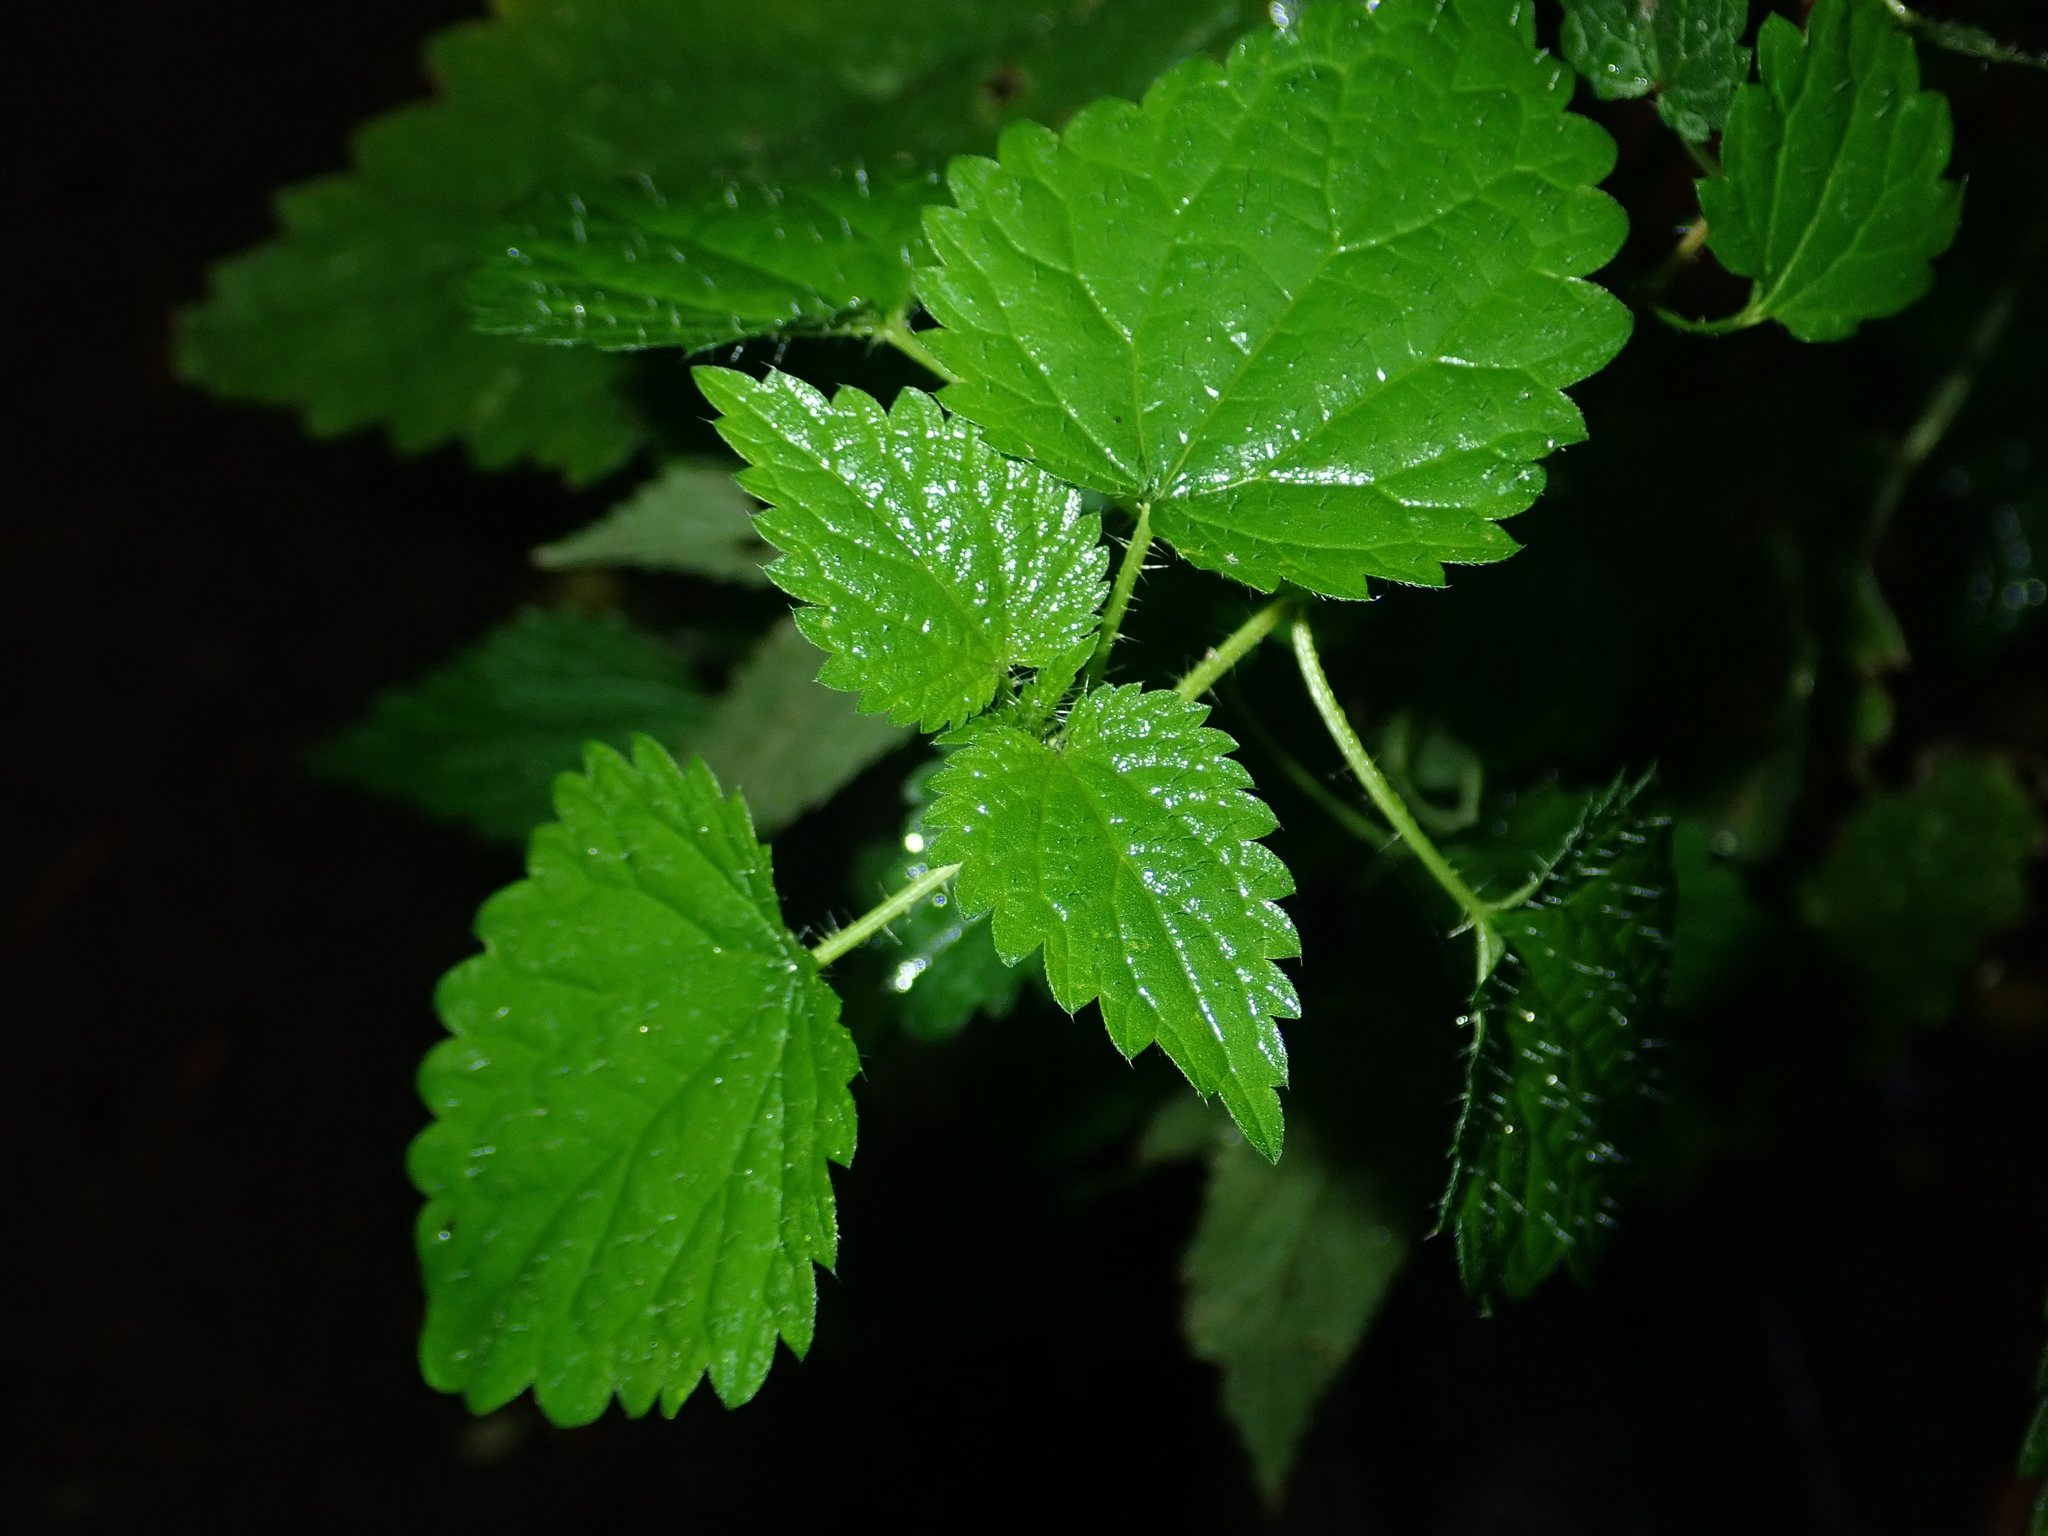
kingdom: Plantae
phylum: Tracheophyta
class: Magnoliopsida
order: Rosales
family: Urticaceae
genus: Urtica
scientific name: Urtica dioica
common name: Common nettle
